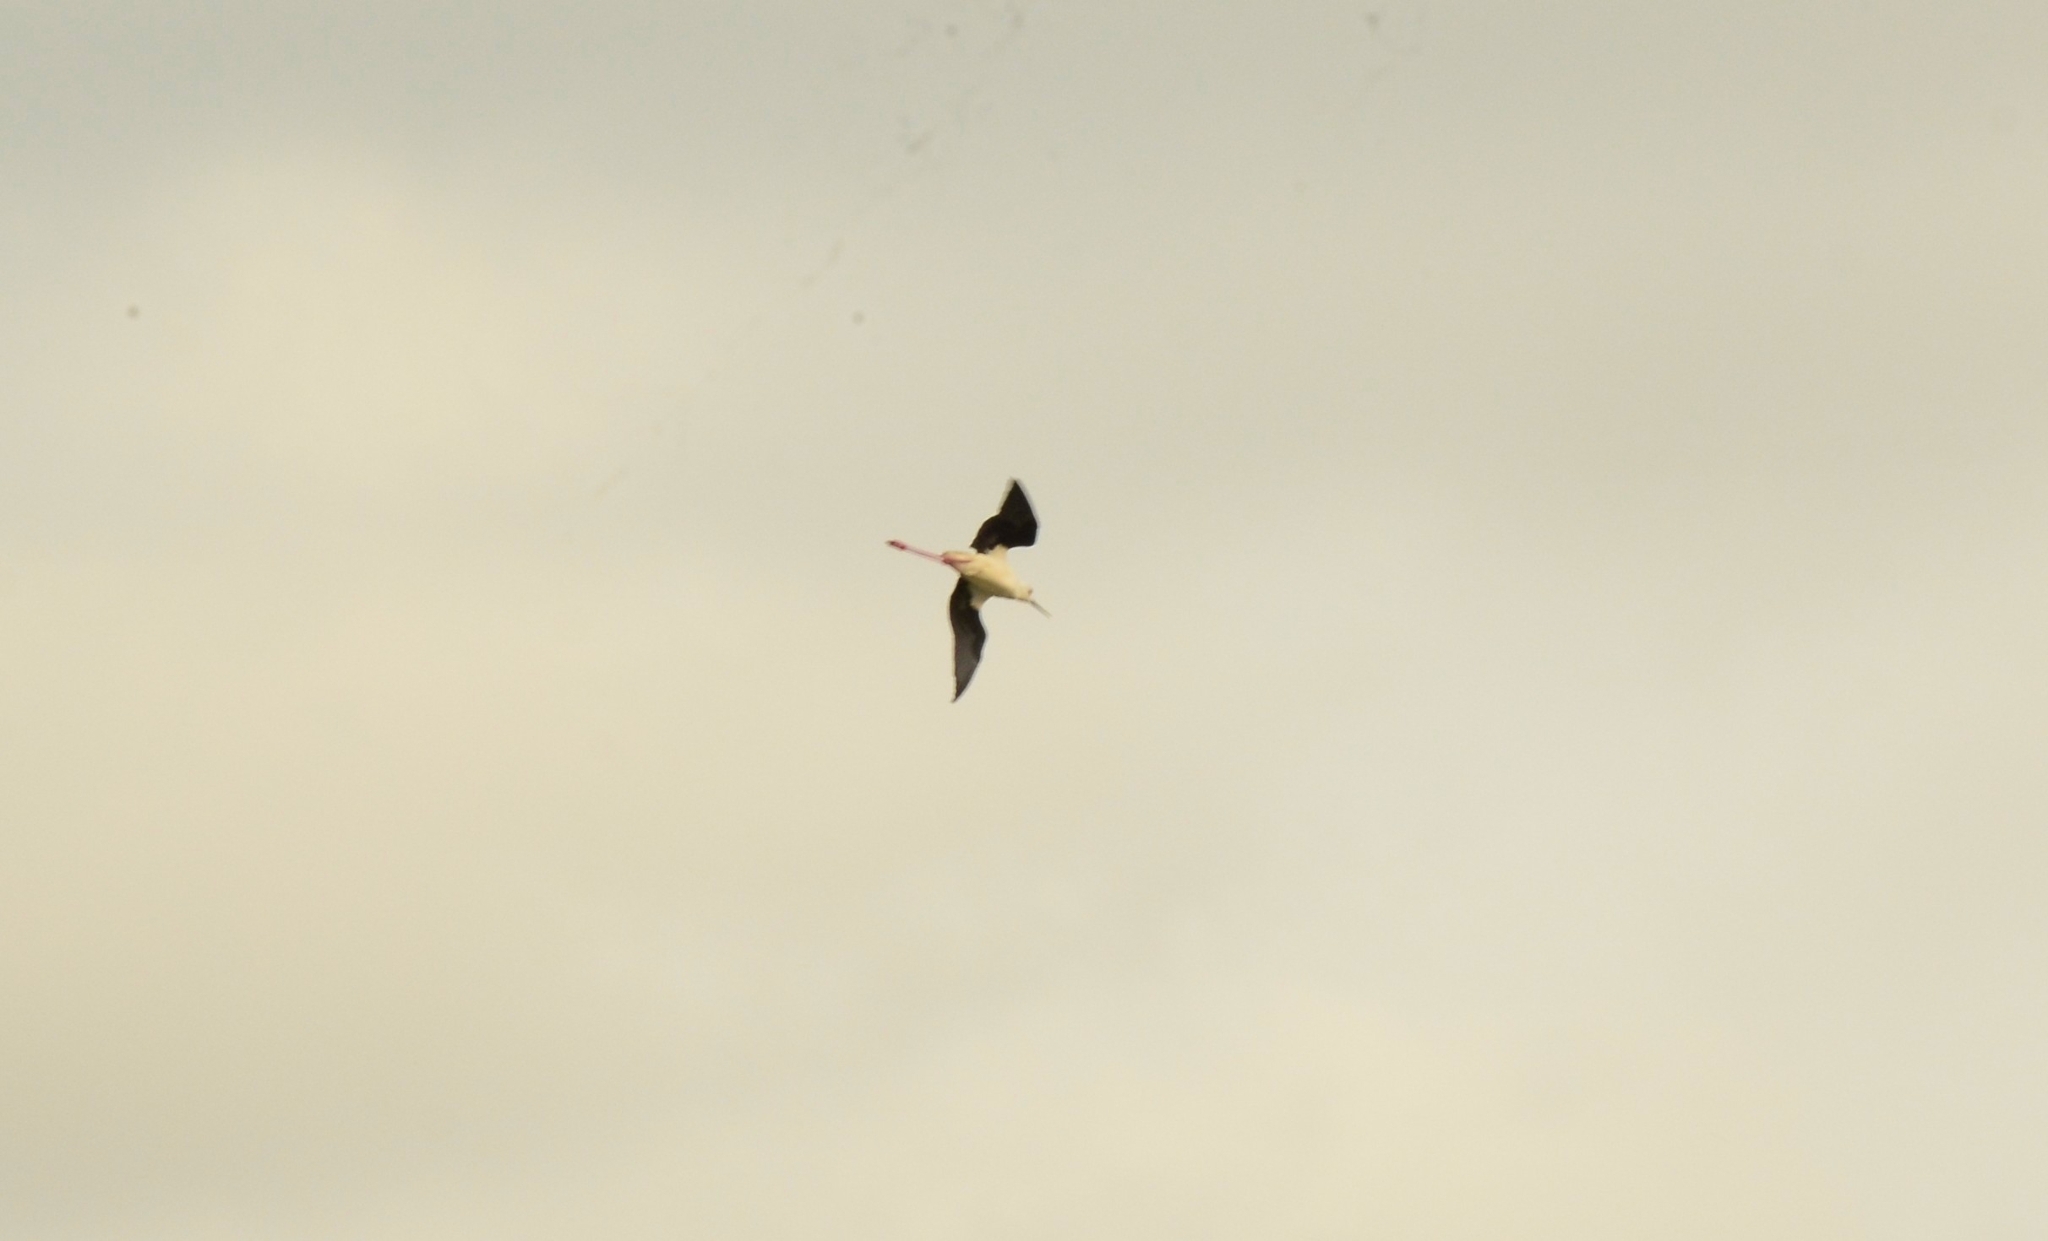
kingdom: Animalia
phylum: Chordata
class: Aves
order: Charadriiformes
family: Recurvirostridae
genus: Himantopus
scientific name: Himantopus himantopus
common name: Black-winged stilt
